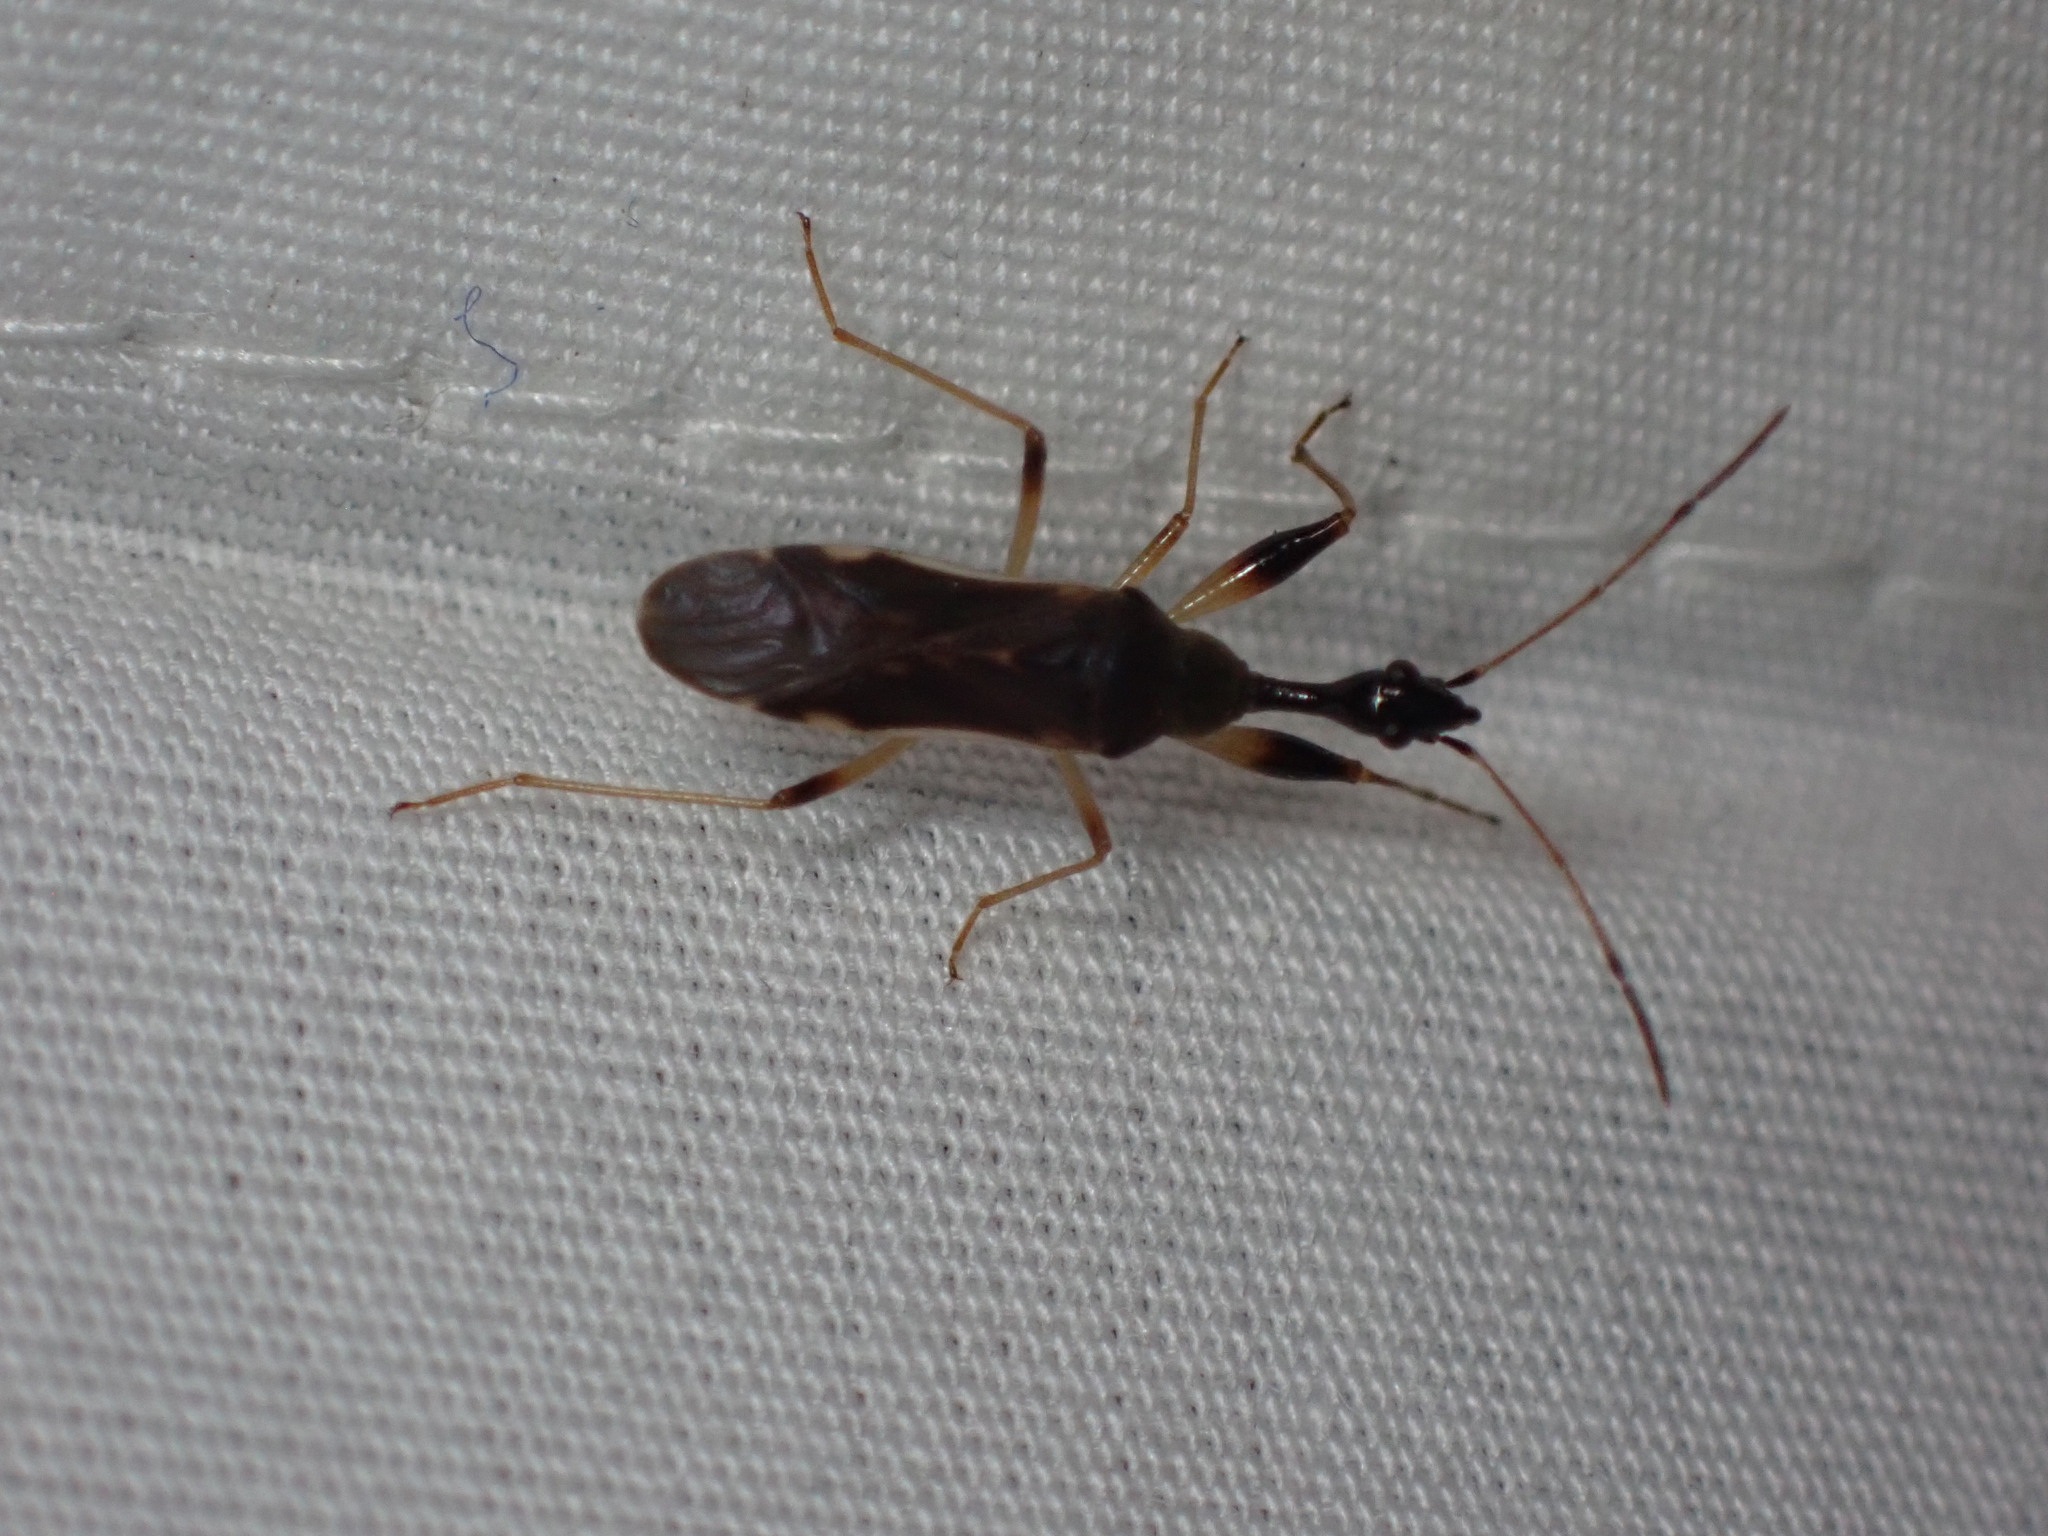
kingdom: Animalia
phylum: Arthropoda
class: Insecta
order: Hemiptera
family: Rhyparochromidae
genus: Myodocha
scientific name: Myodocha serripes
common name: Long-necked seed bug
